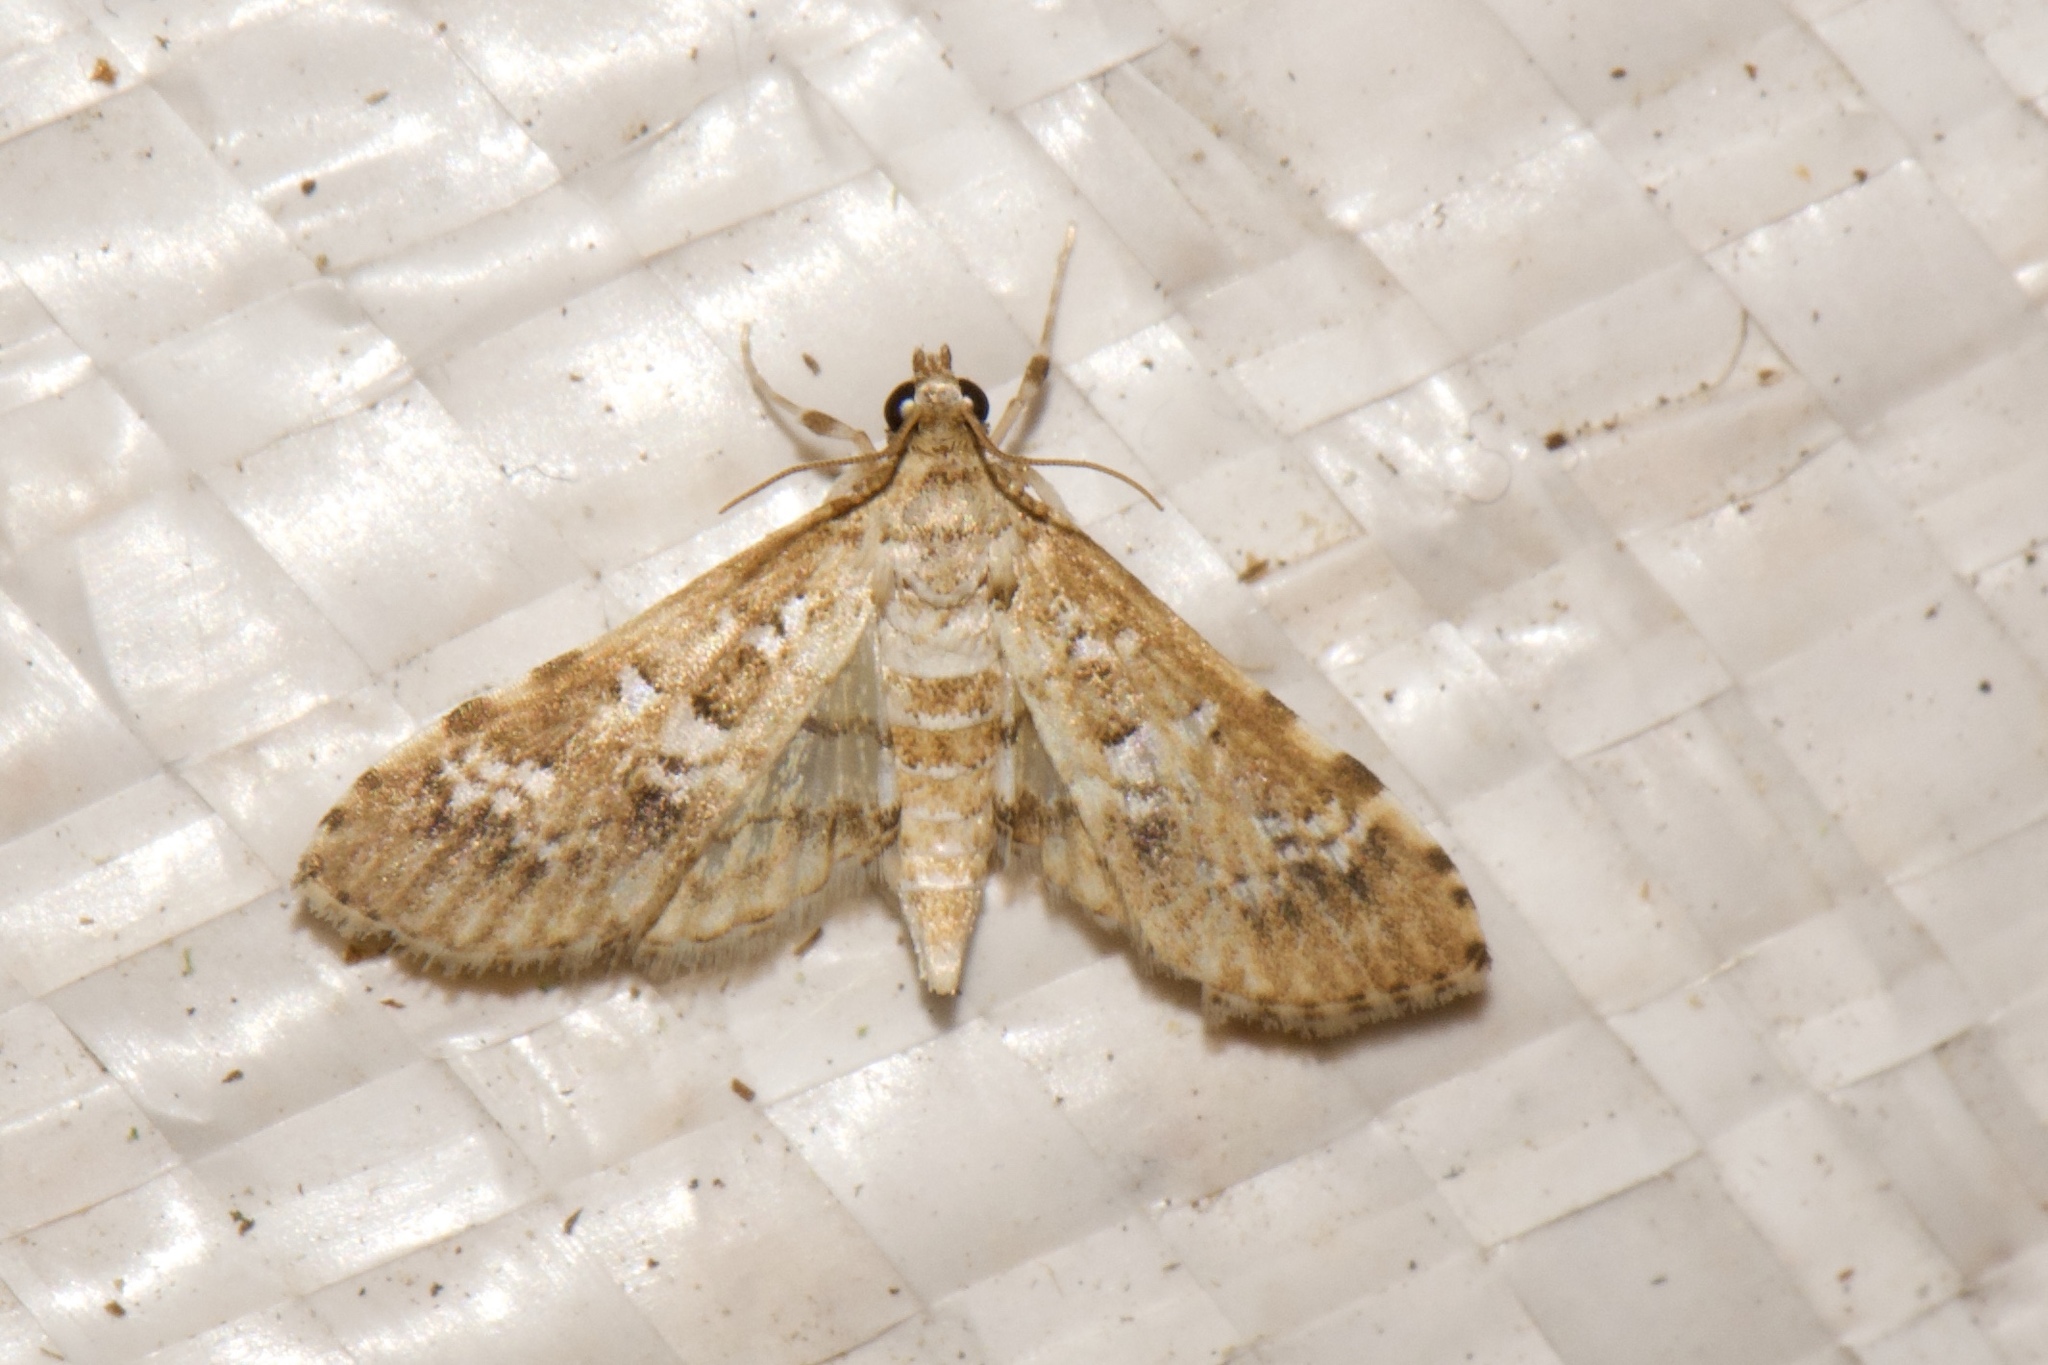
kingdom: Animalia
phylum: Arthropoda
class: Insecta
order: Lepidoptera
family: Crambidae
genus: Samea
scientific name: Samea multiplicalis
